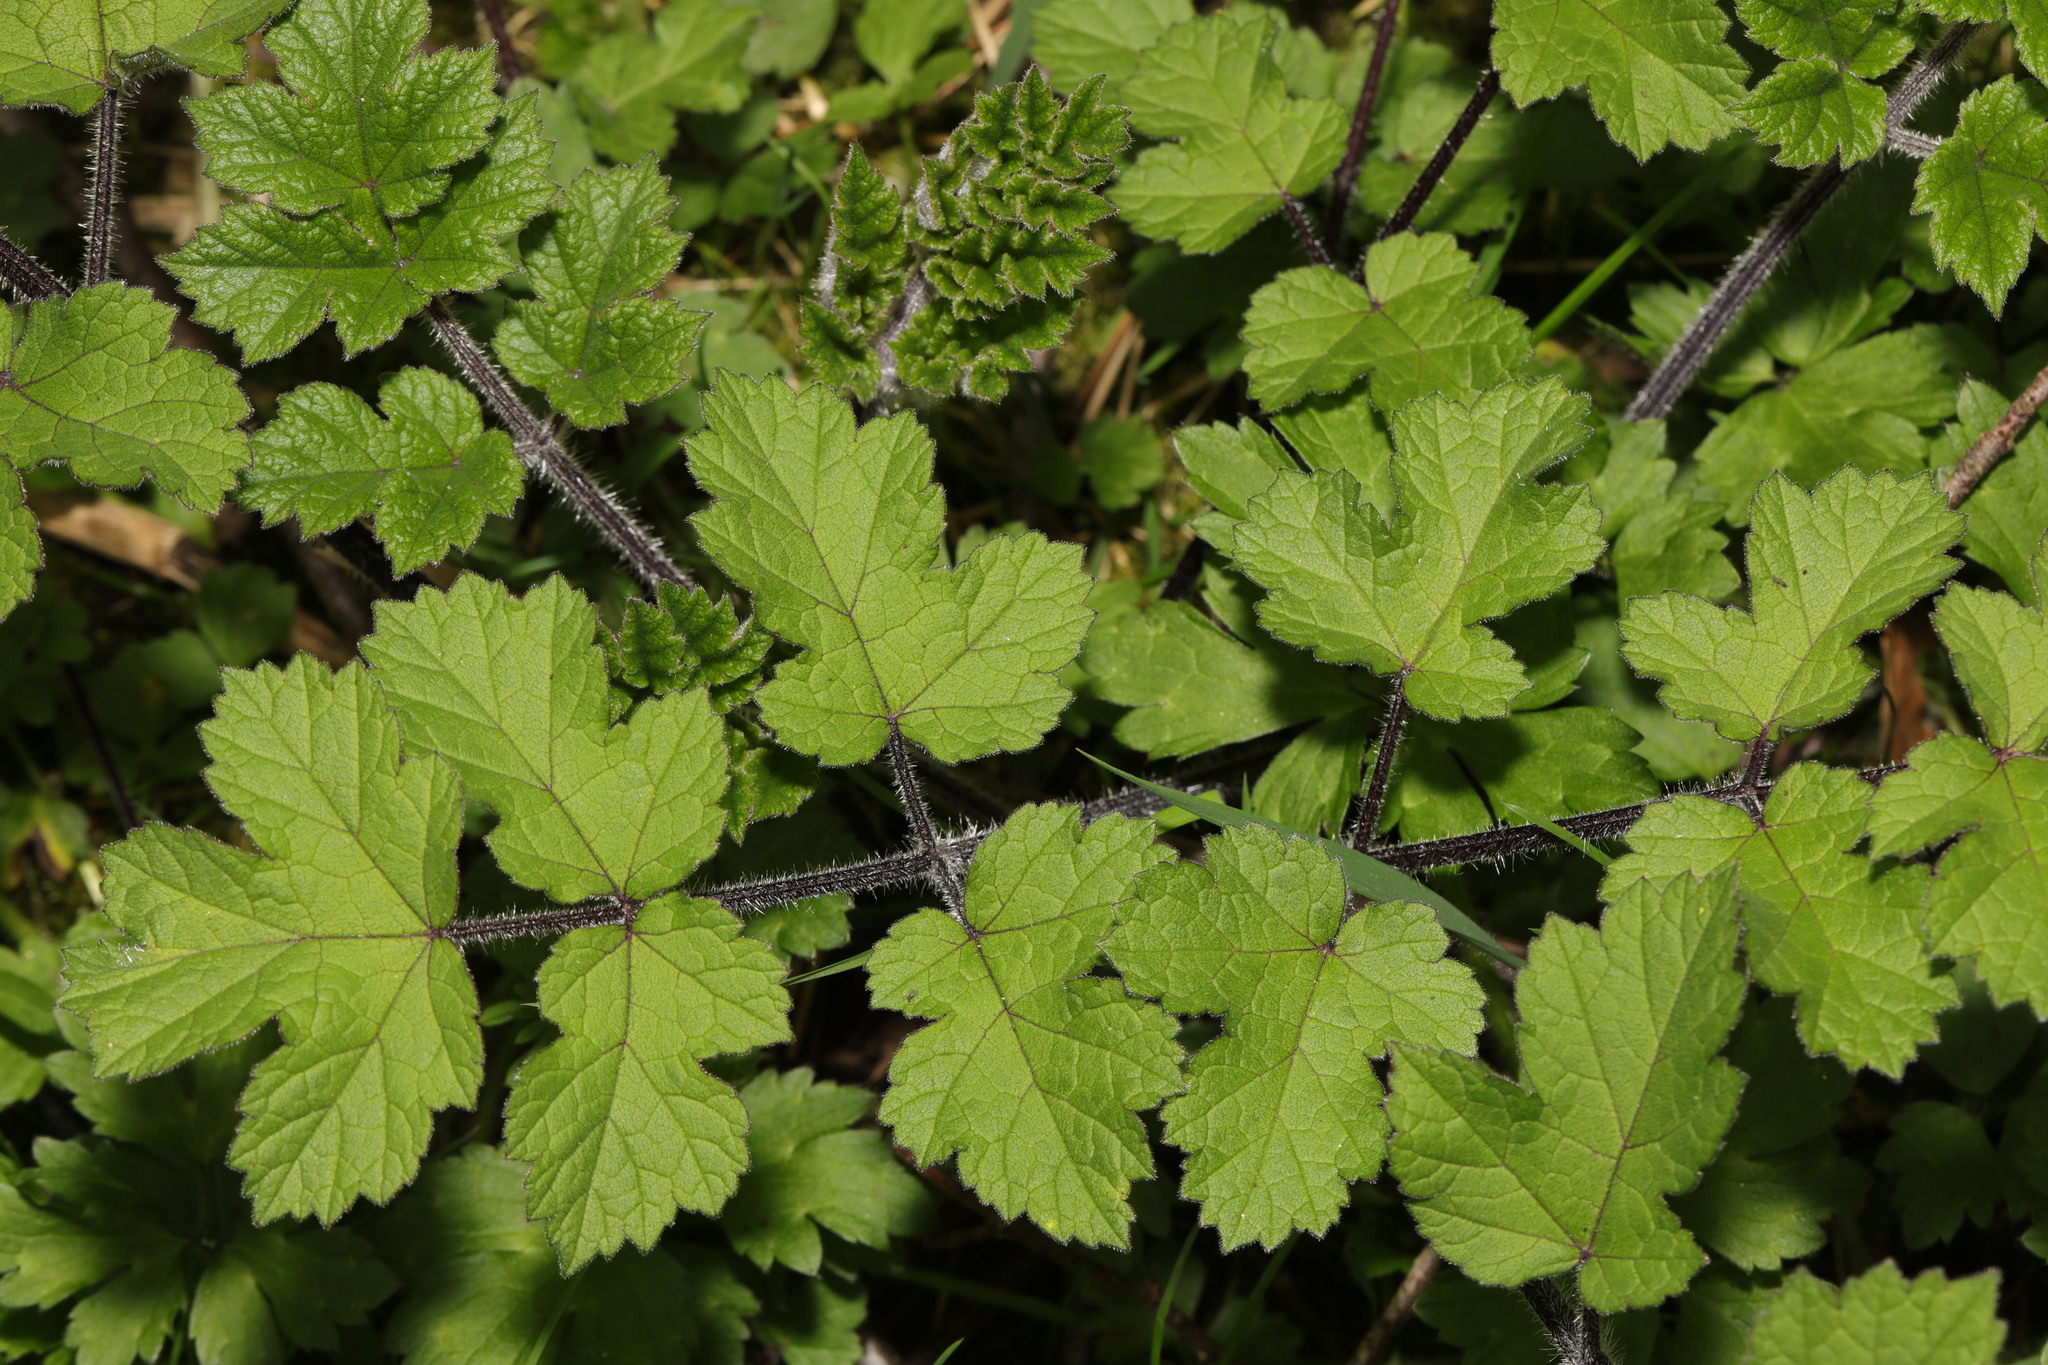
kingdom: Plantae
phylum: Tracheophyta
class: Magnoliopsida
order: Apiales
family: Apiaceae
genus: Heracleum
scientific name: Heracleum sphondylium
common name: Hogweed
